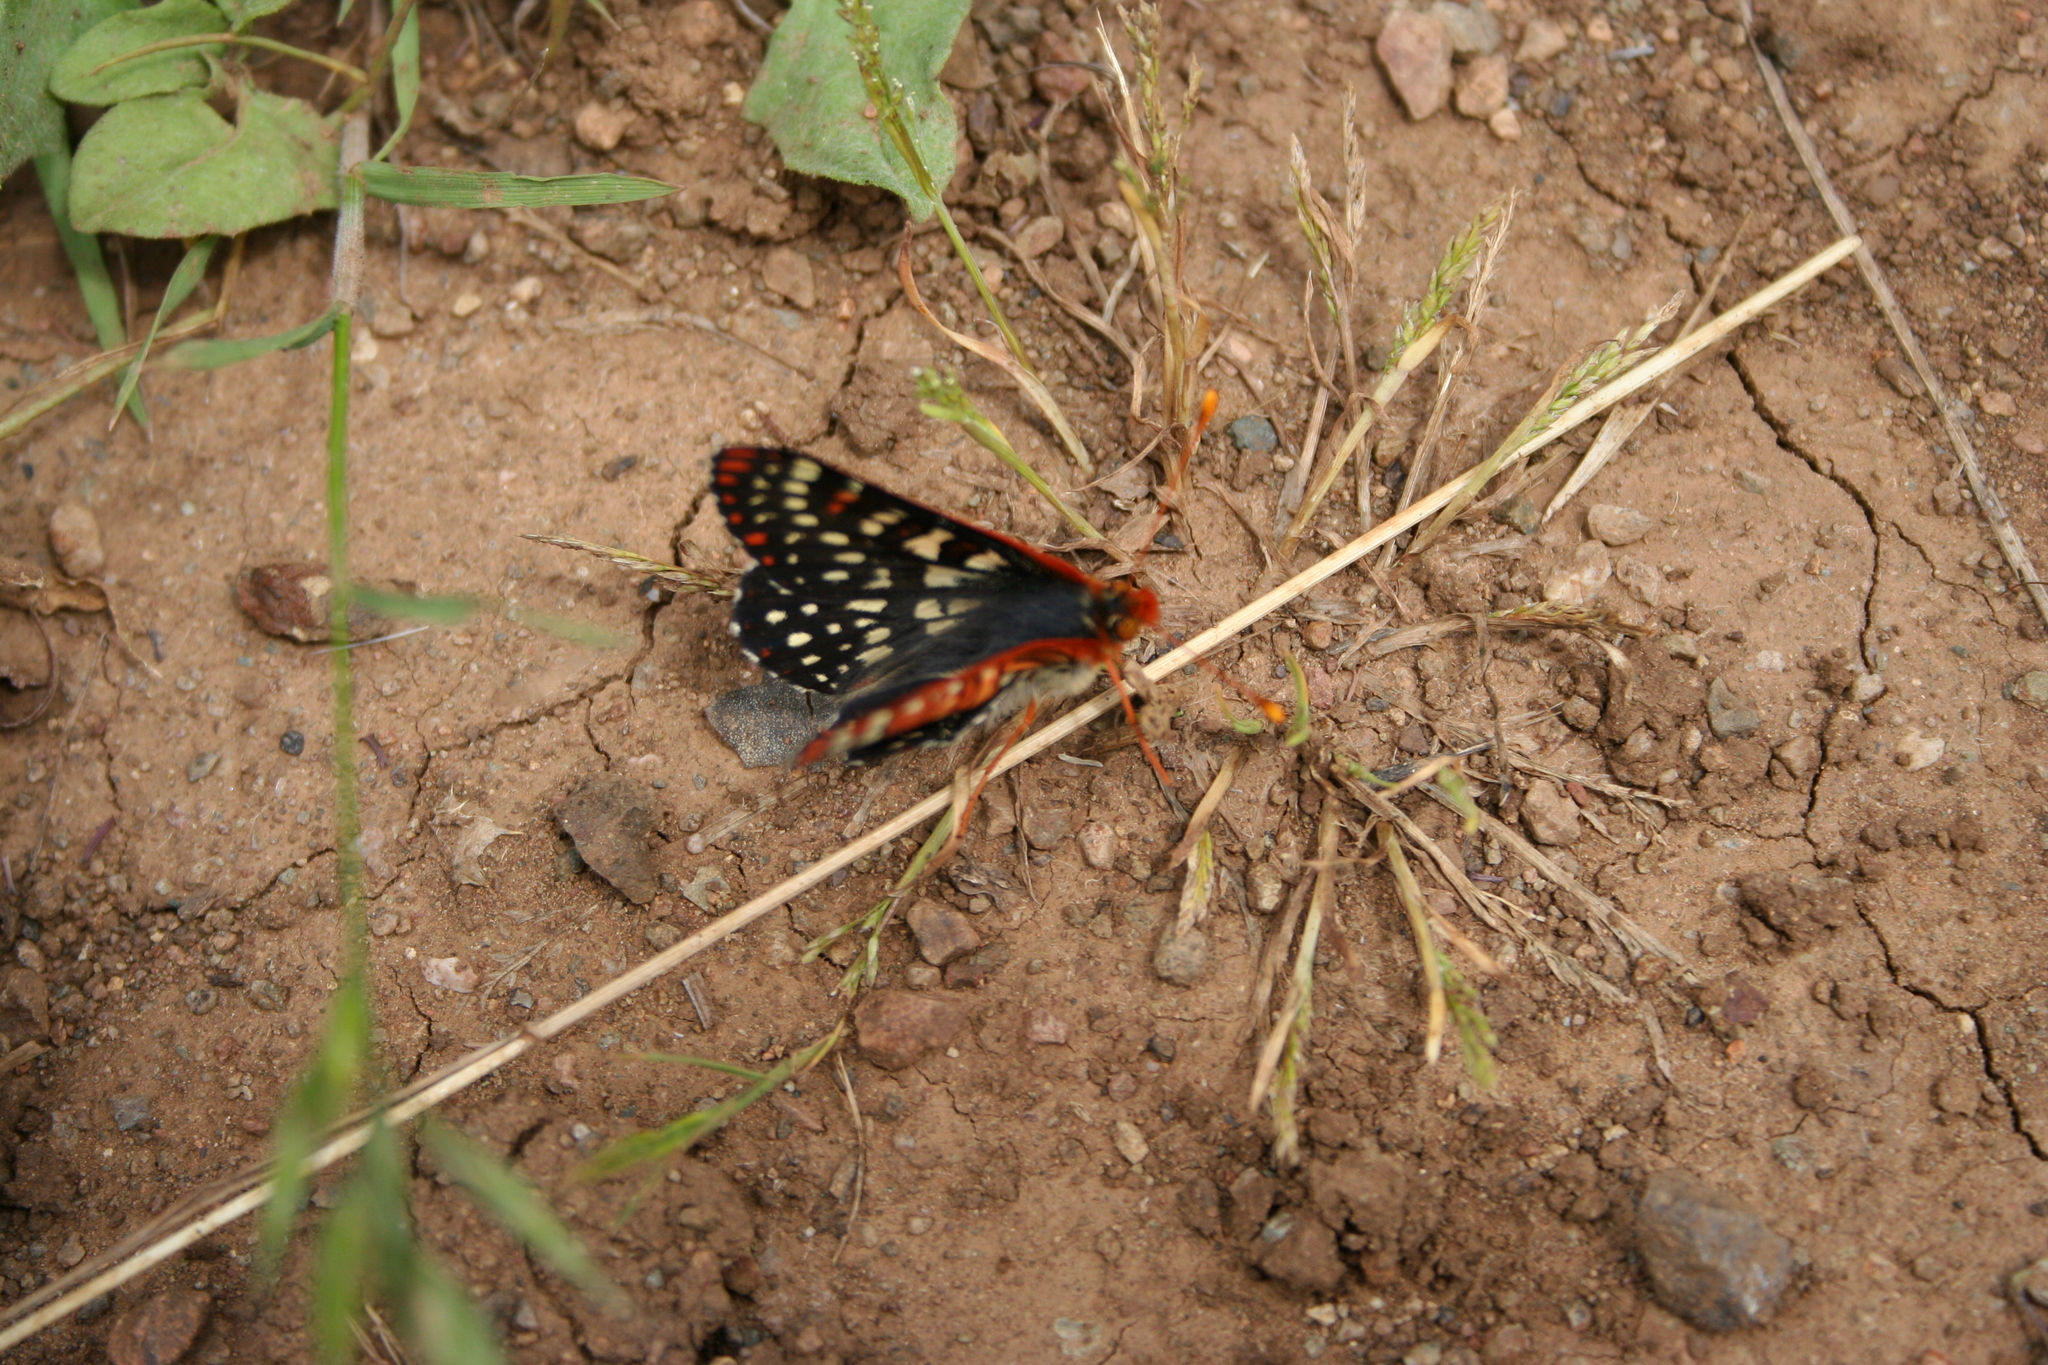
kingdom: Animalia
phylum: Arthropoda
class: Insecta
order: Lepidoptera
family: Nymphalidae
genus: Occidryas
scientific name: Occidryas chalcedona
